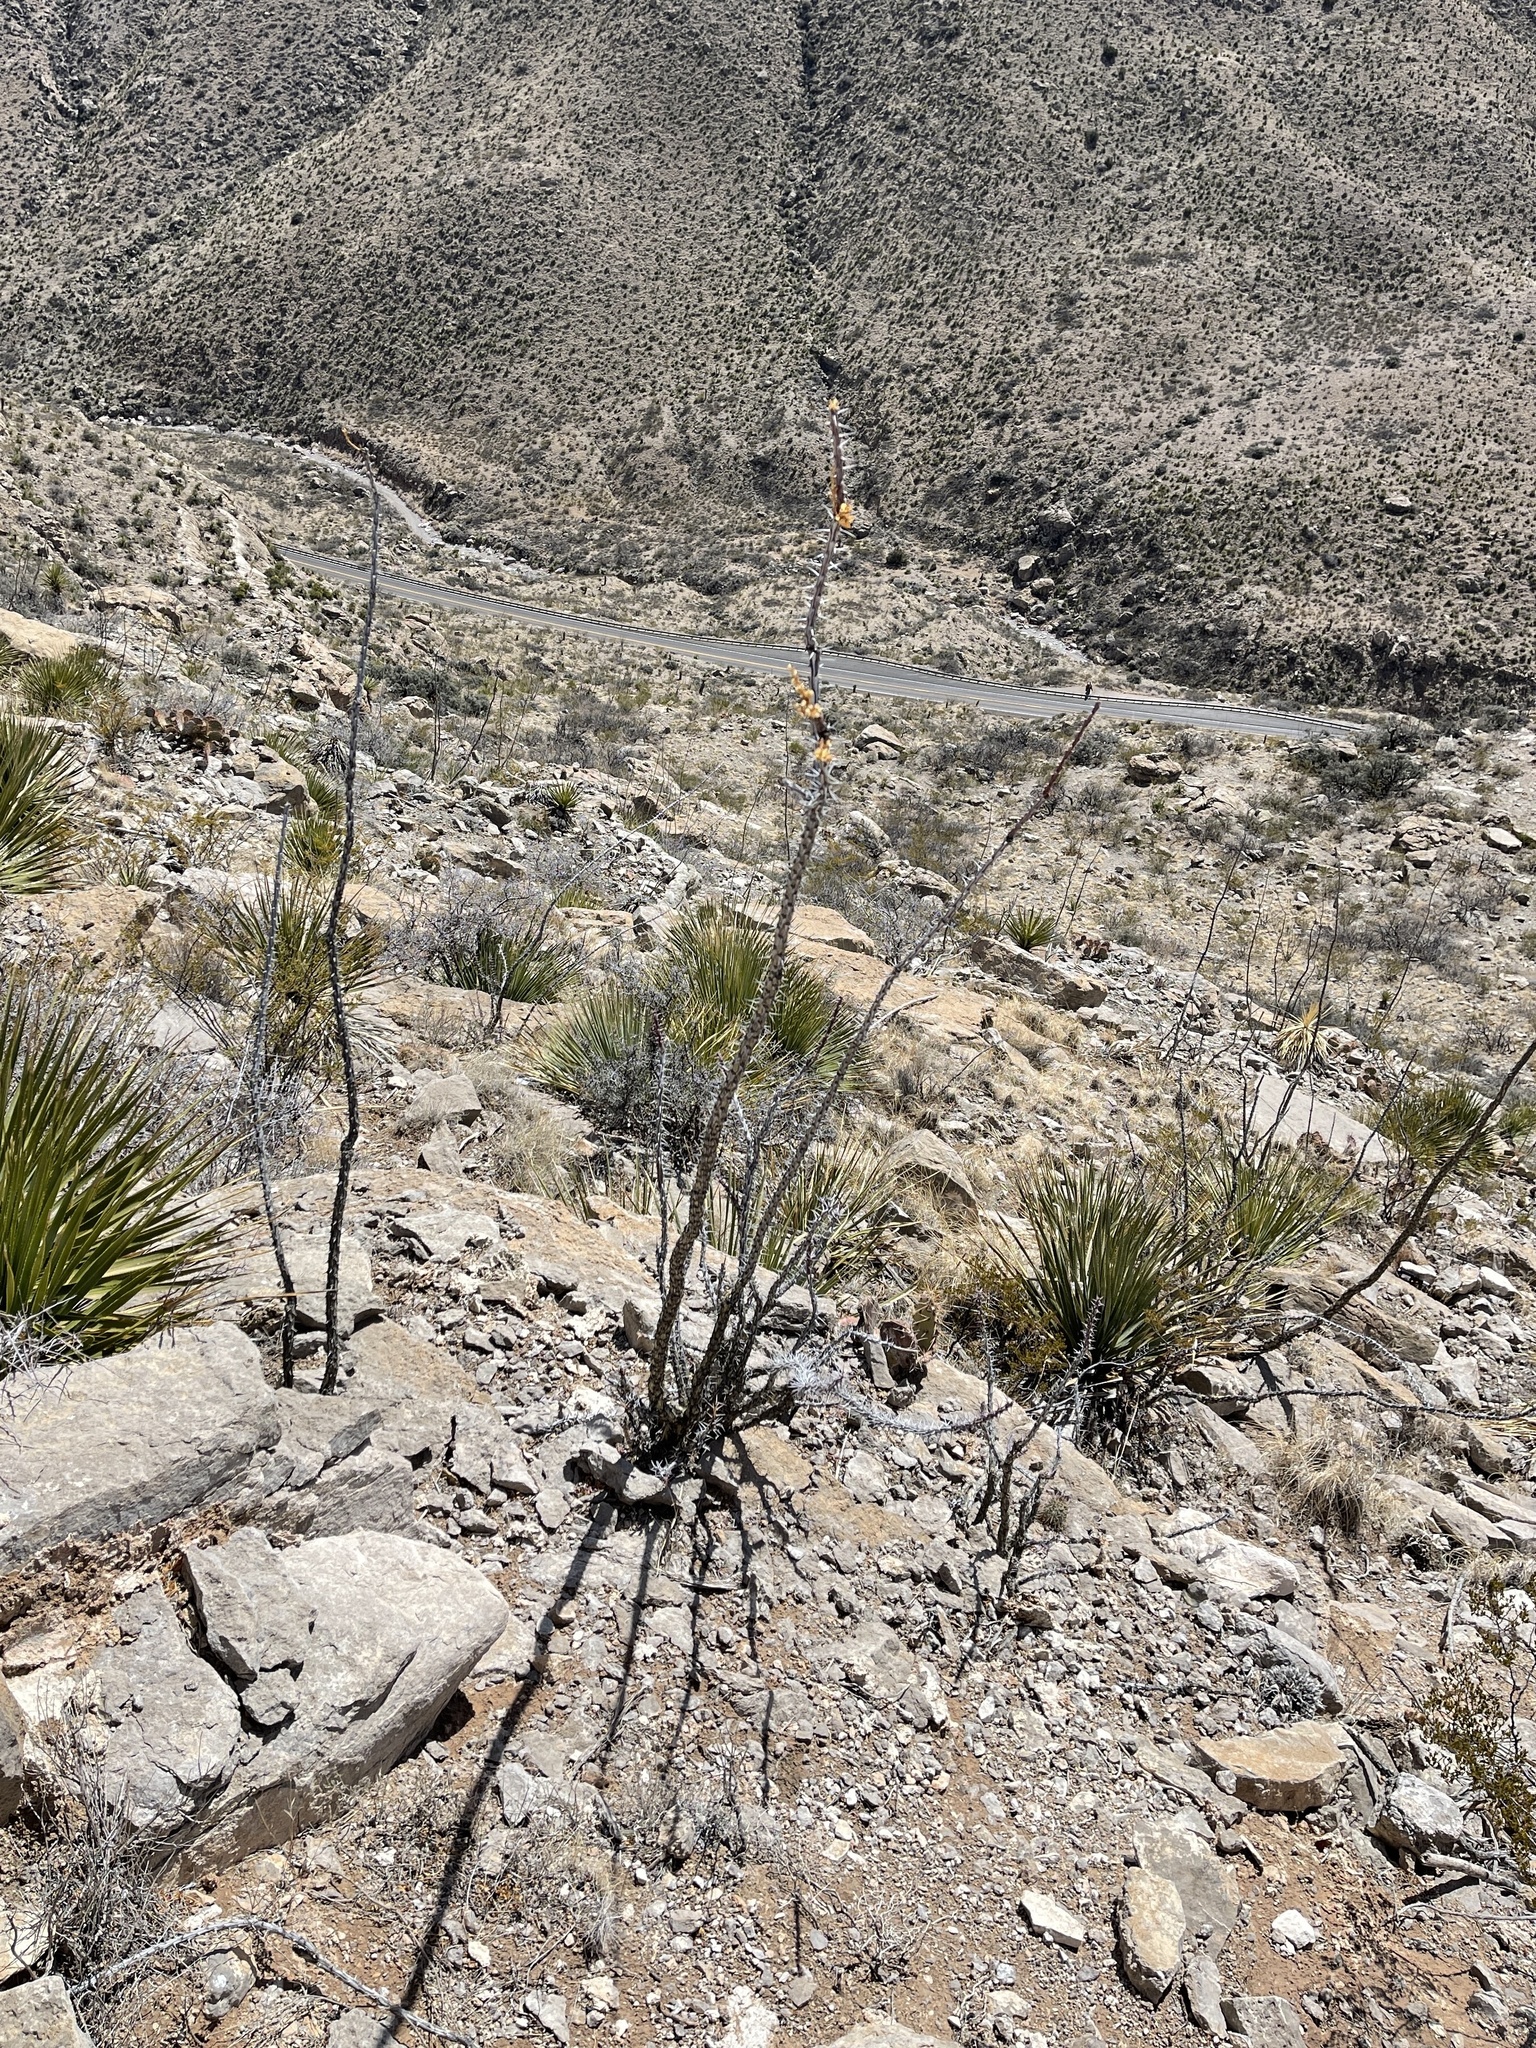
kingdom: Plantae
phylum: Tracheophyta
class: Magnoliopsida
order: Ericales
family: Fouquieriaceae
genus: Fouquieria
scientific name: Fouquieria splendens
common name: Vine-cactus
